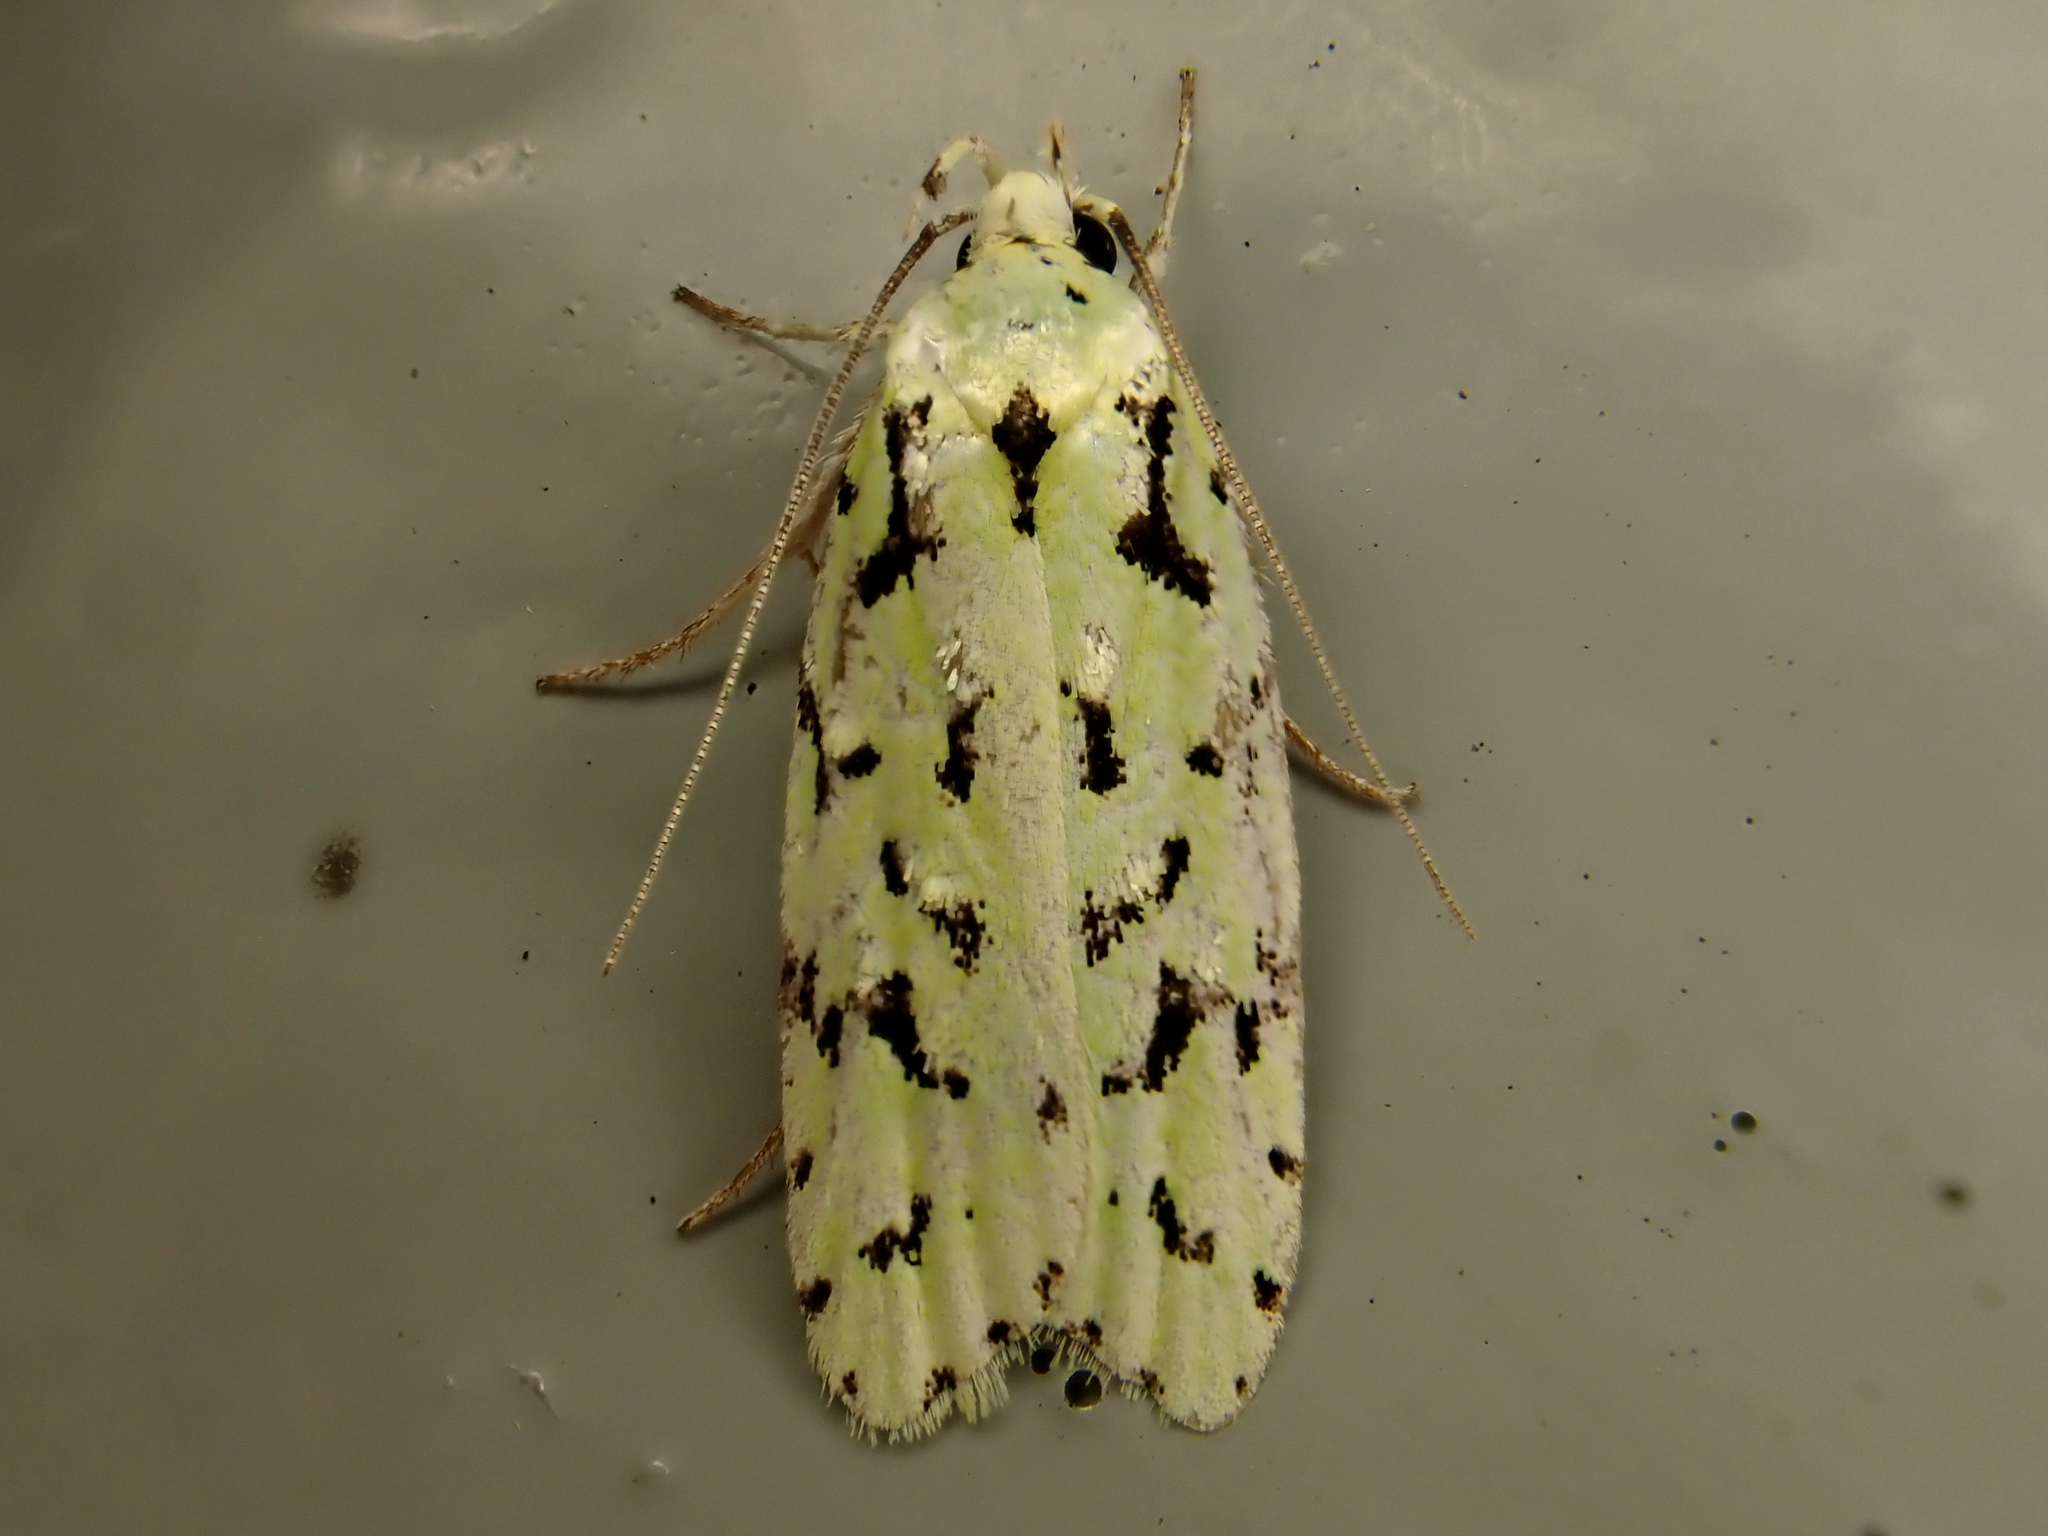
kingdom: Animalia
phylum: Arthropoda
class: Insecta
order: Lepidoptera
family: Oecophoridae
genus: Izatha
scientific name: Izatha peroneanella
